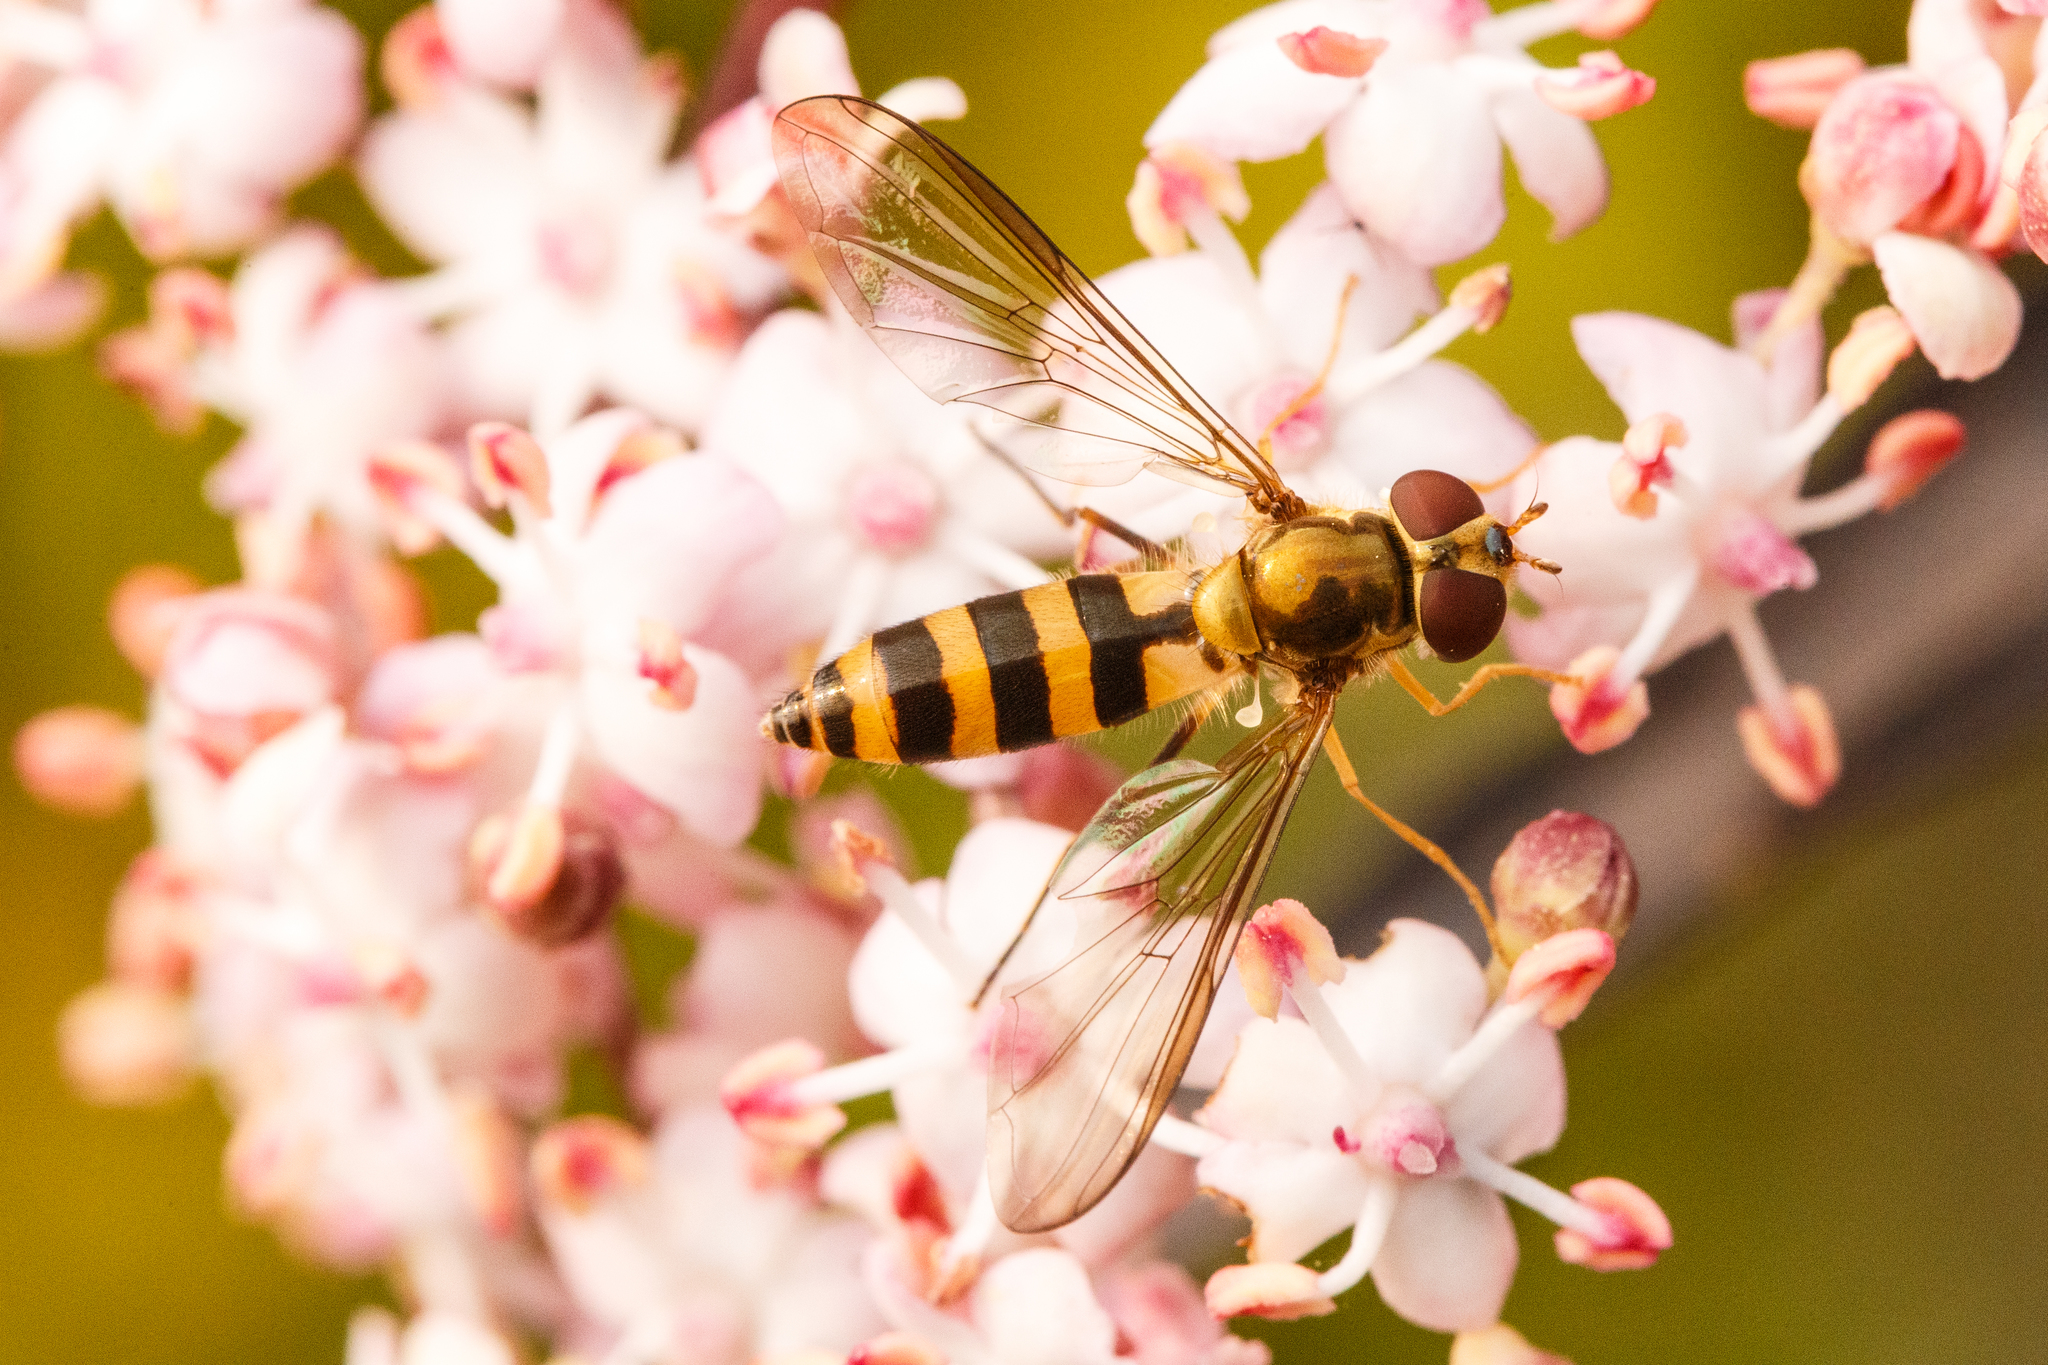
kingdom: Animalia
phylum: Arthropoda
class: Insecta
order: Diptera
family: Syrphidae
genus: Meliscaeva
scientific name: Meliscaeva cinctella
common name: American thintail fly
